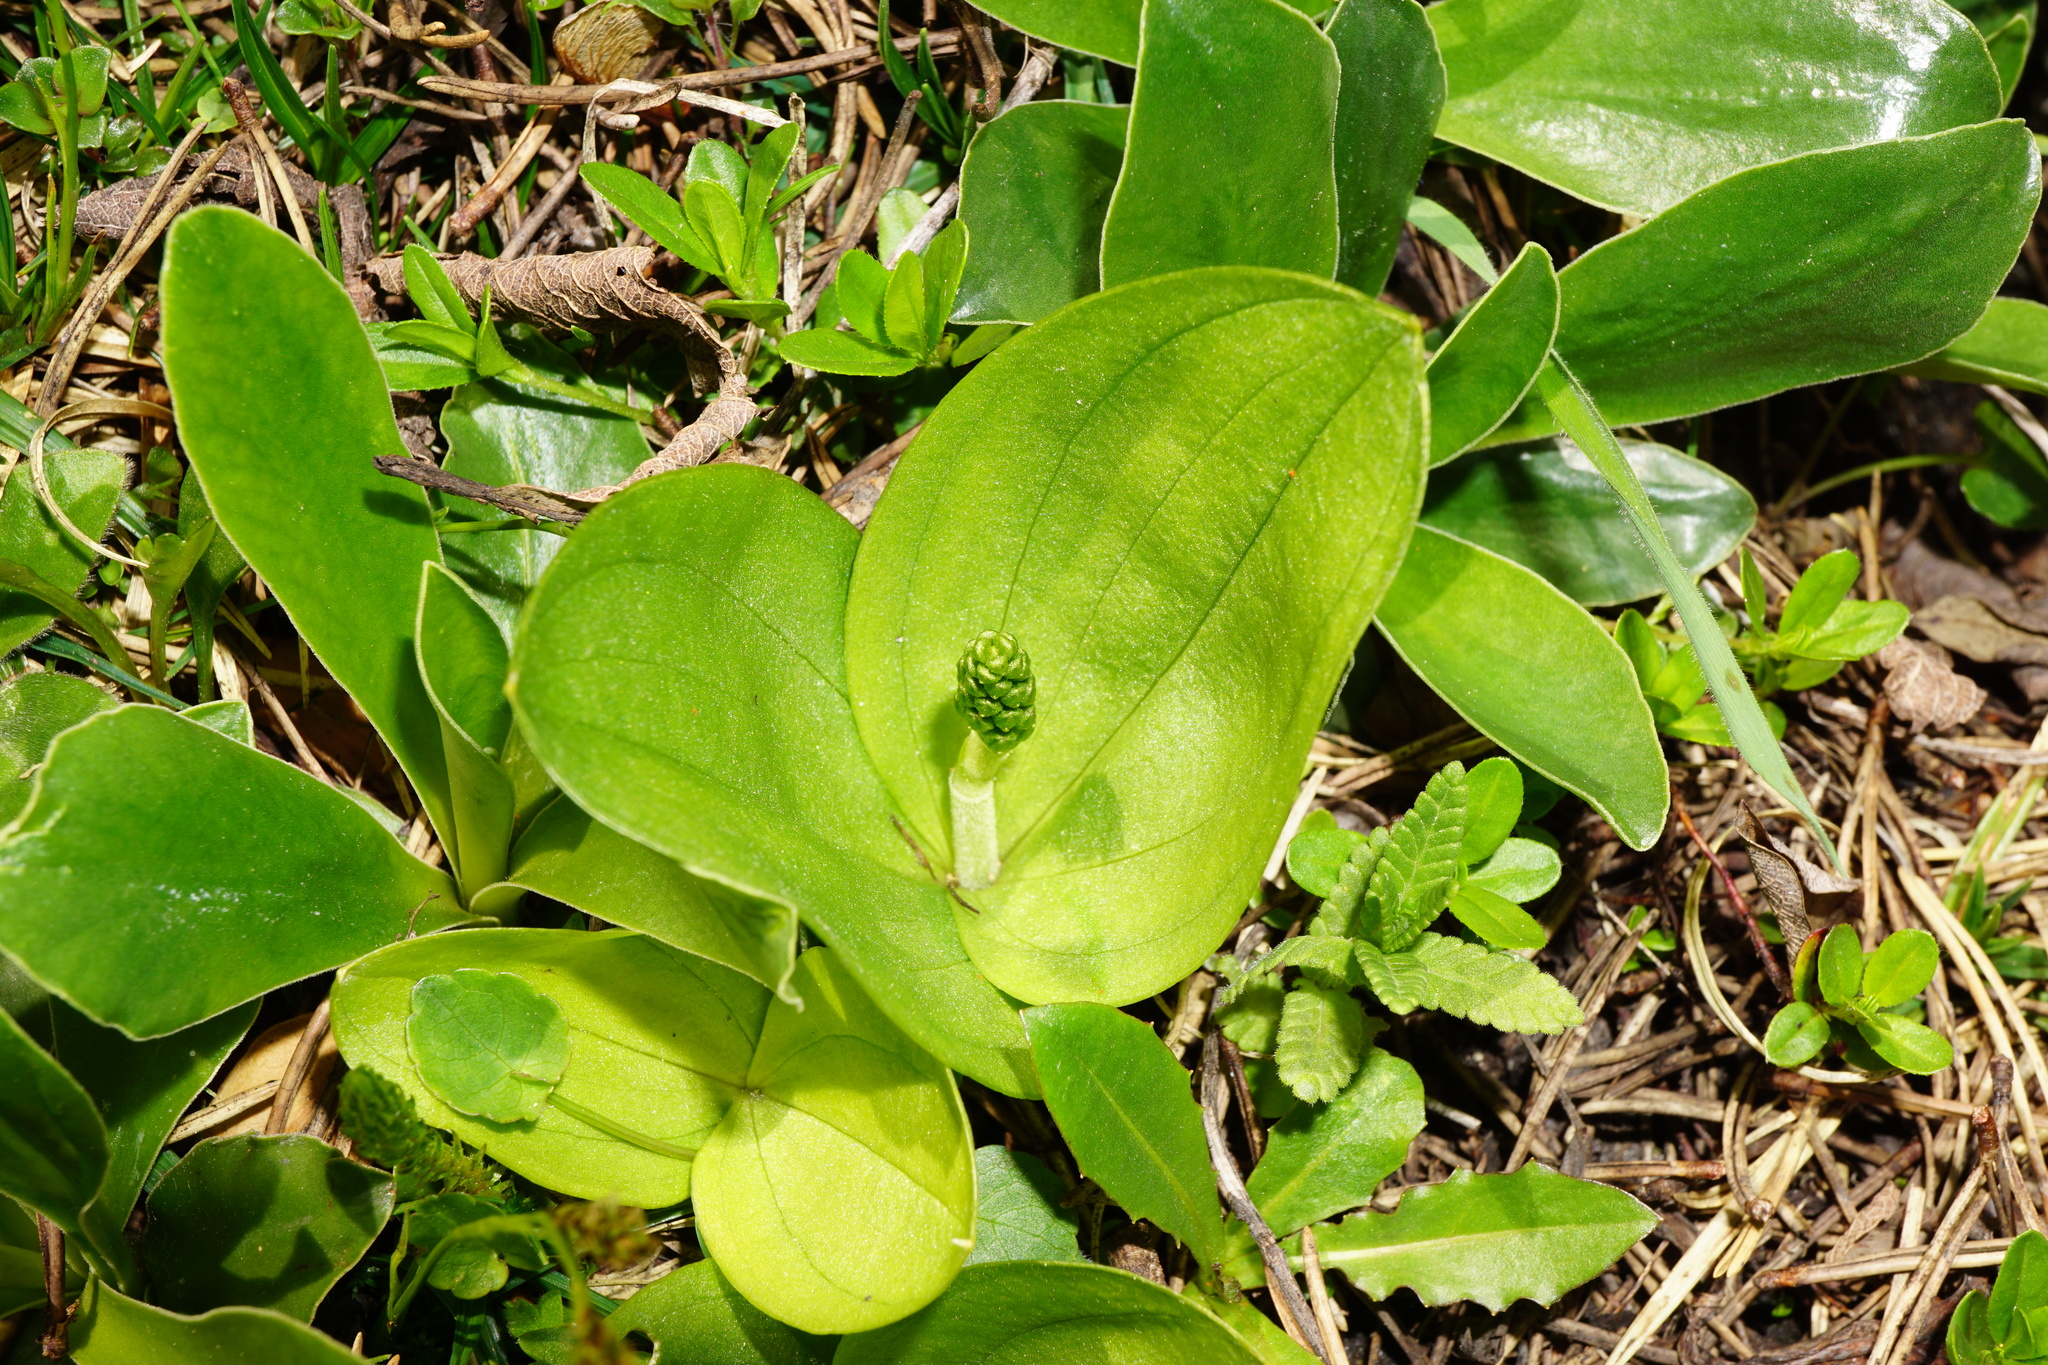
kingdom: Plantae
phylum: Tracheophyta
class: Liliopsida
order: Asparagales
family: Orchidaceae
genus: Neottia
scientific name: Neottia ovata
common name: Common twayblade
